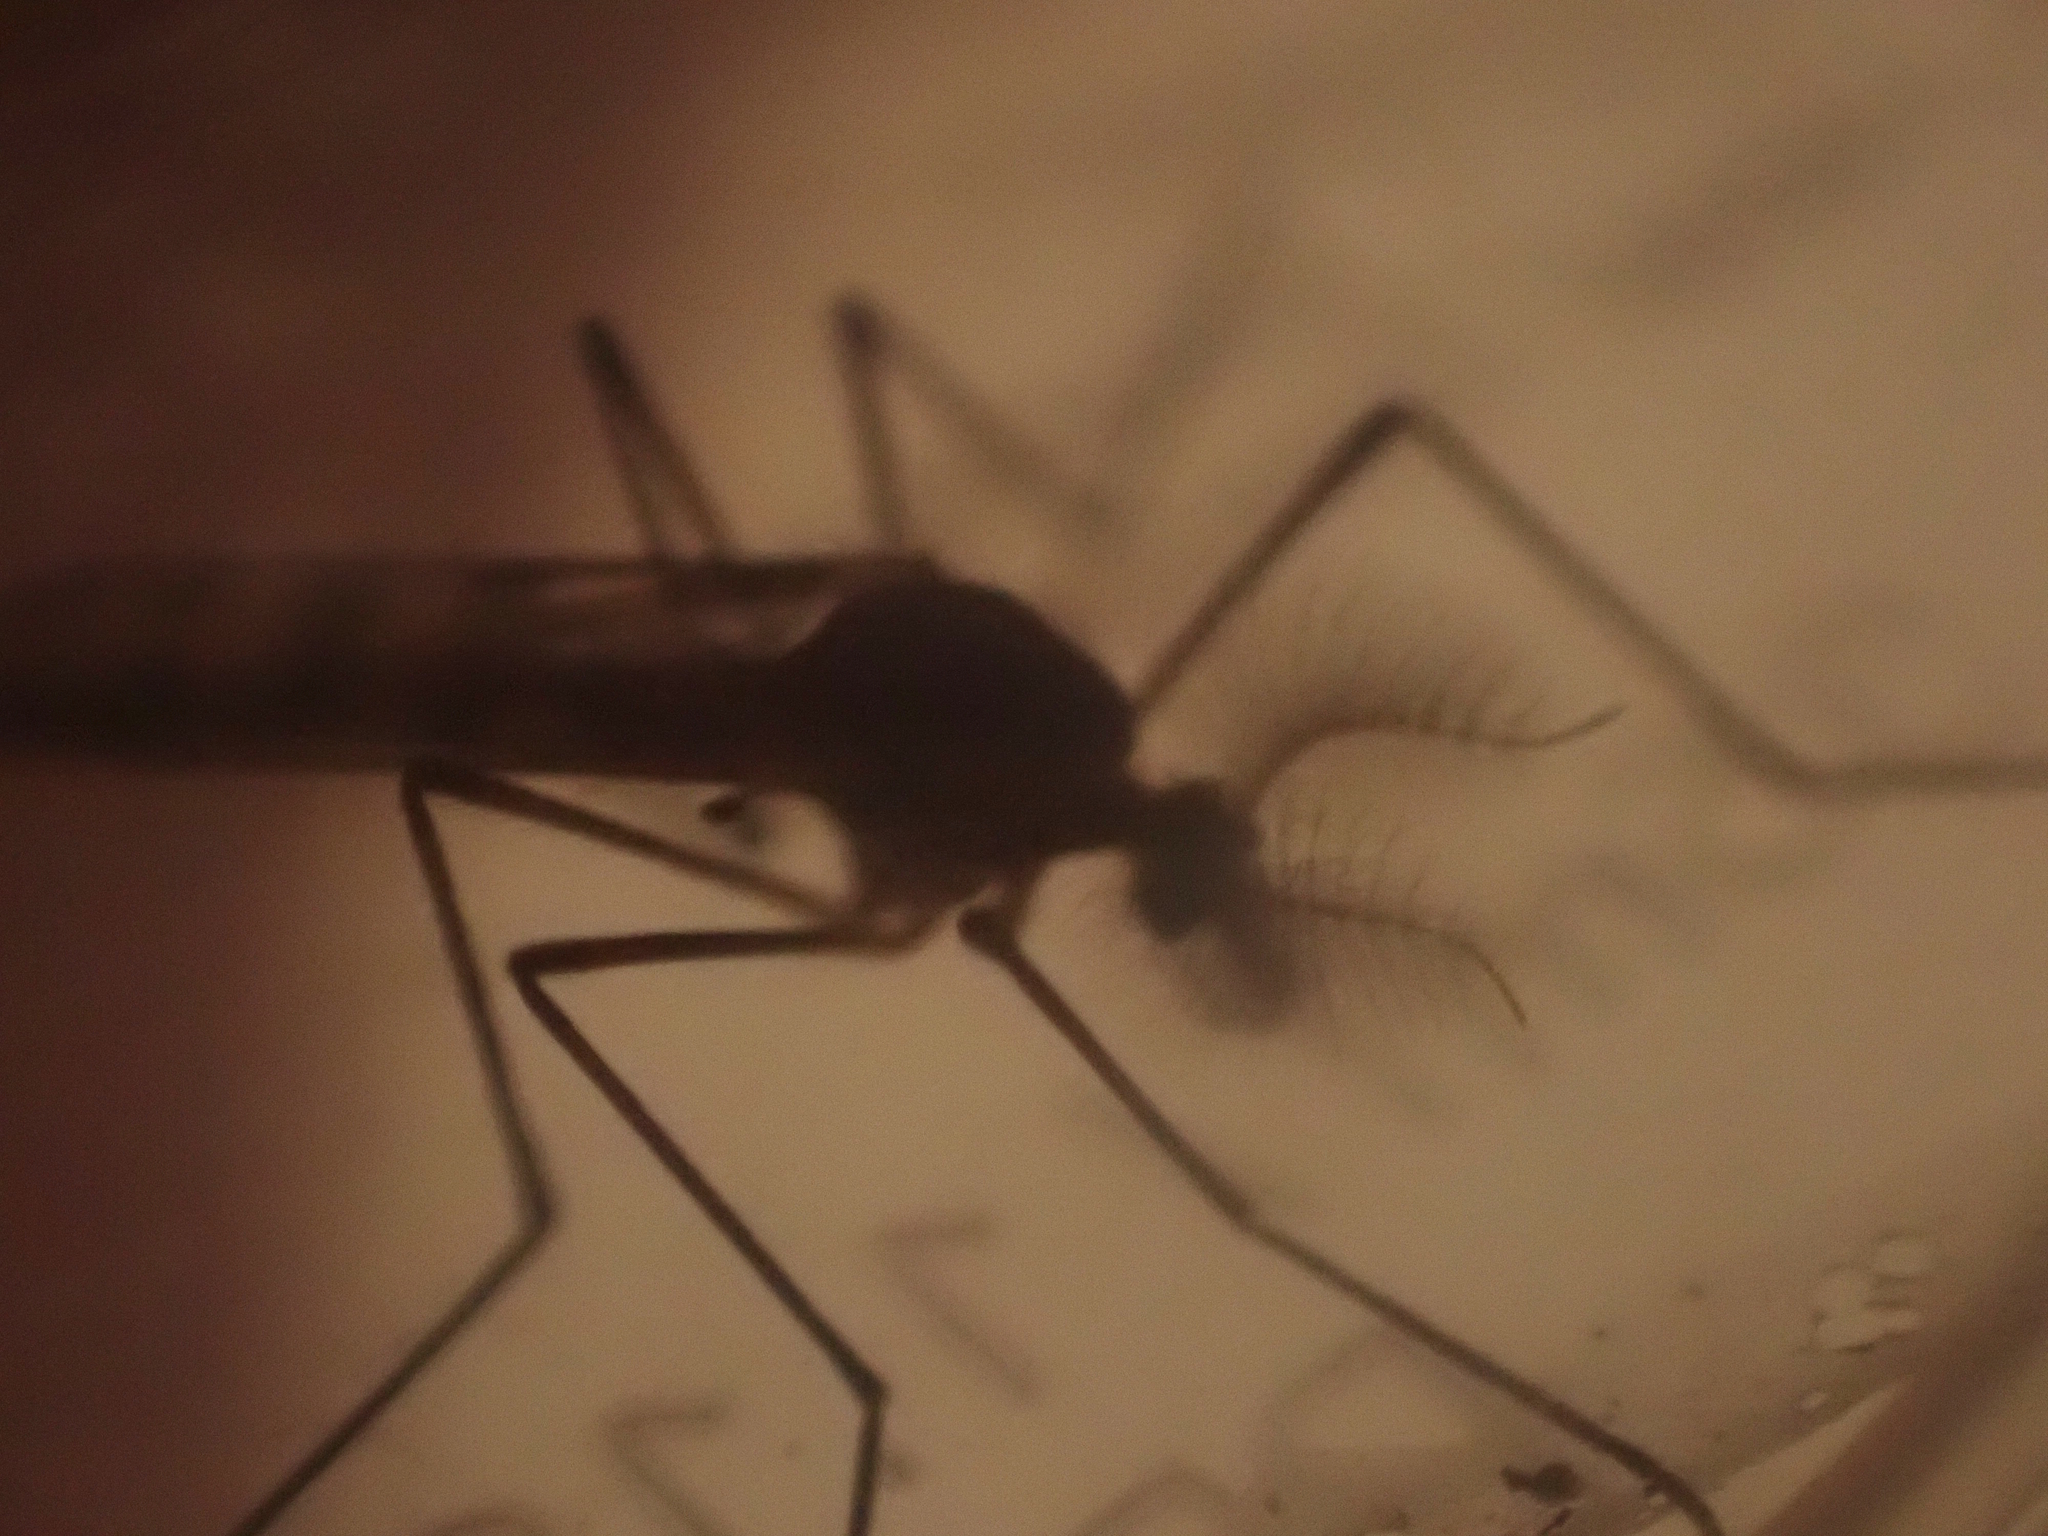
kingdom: Animalia
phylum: Arthropoda
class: Insecta
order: Diptera
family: Chaoboridae
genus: Eucorethra
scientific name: Eucorethra underwoodi
